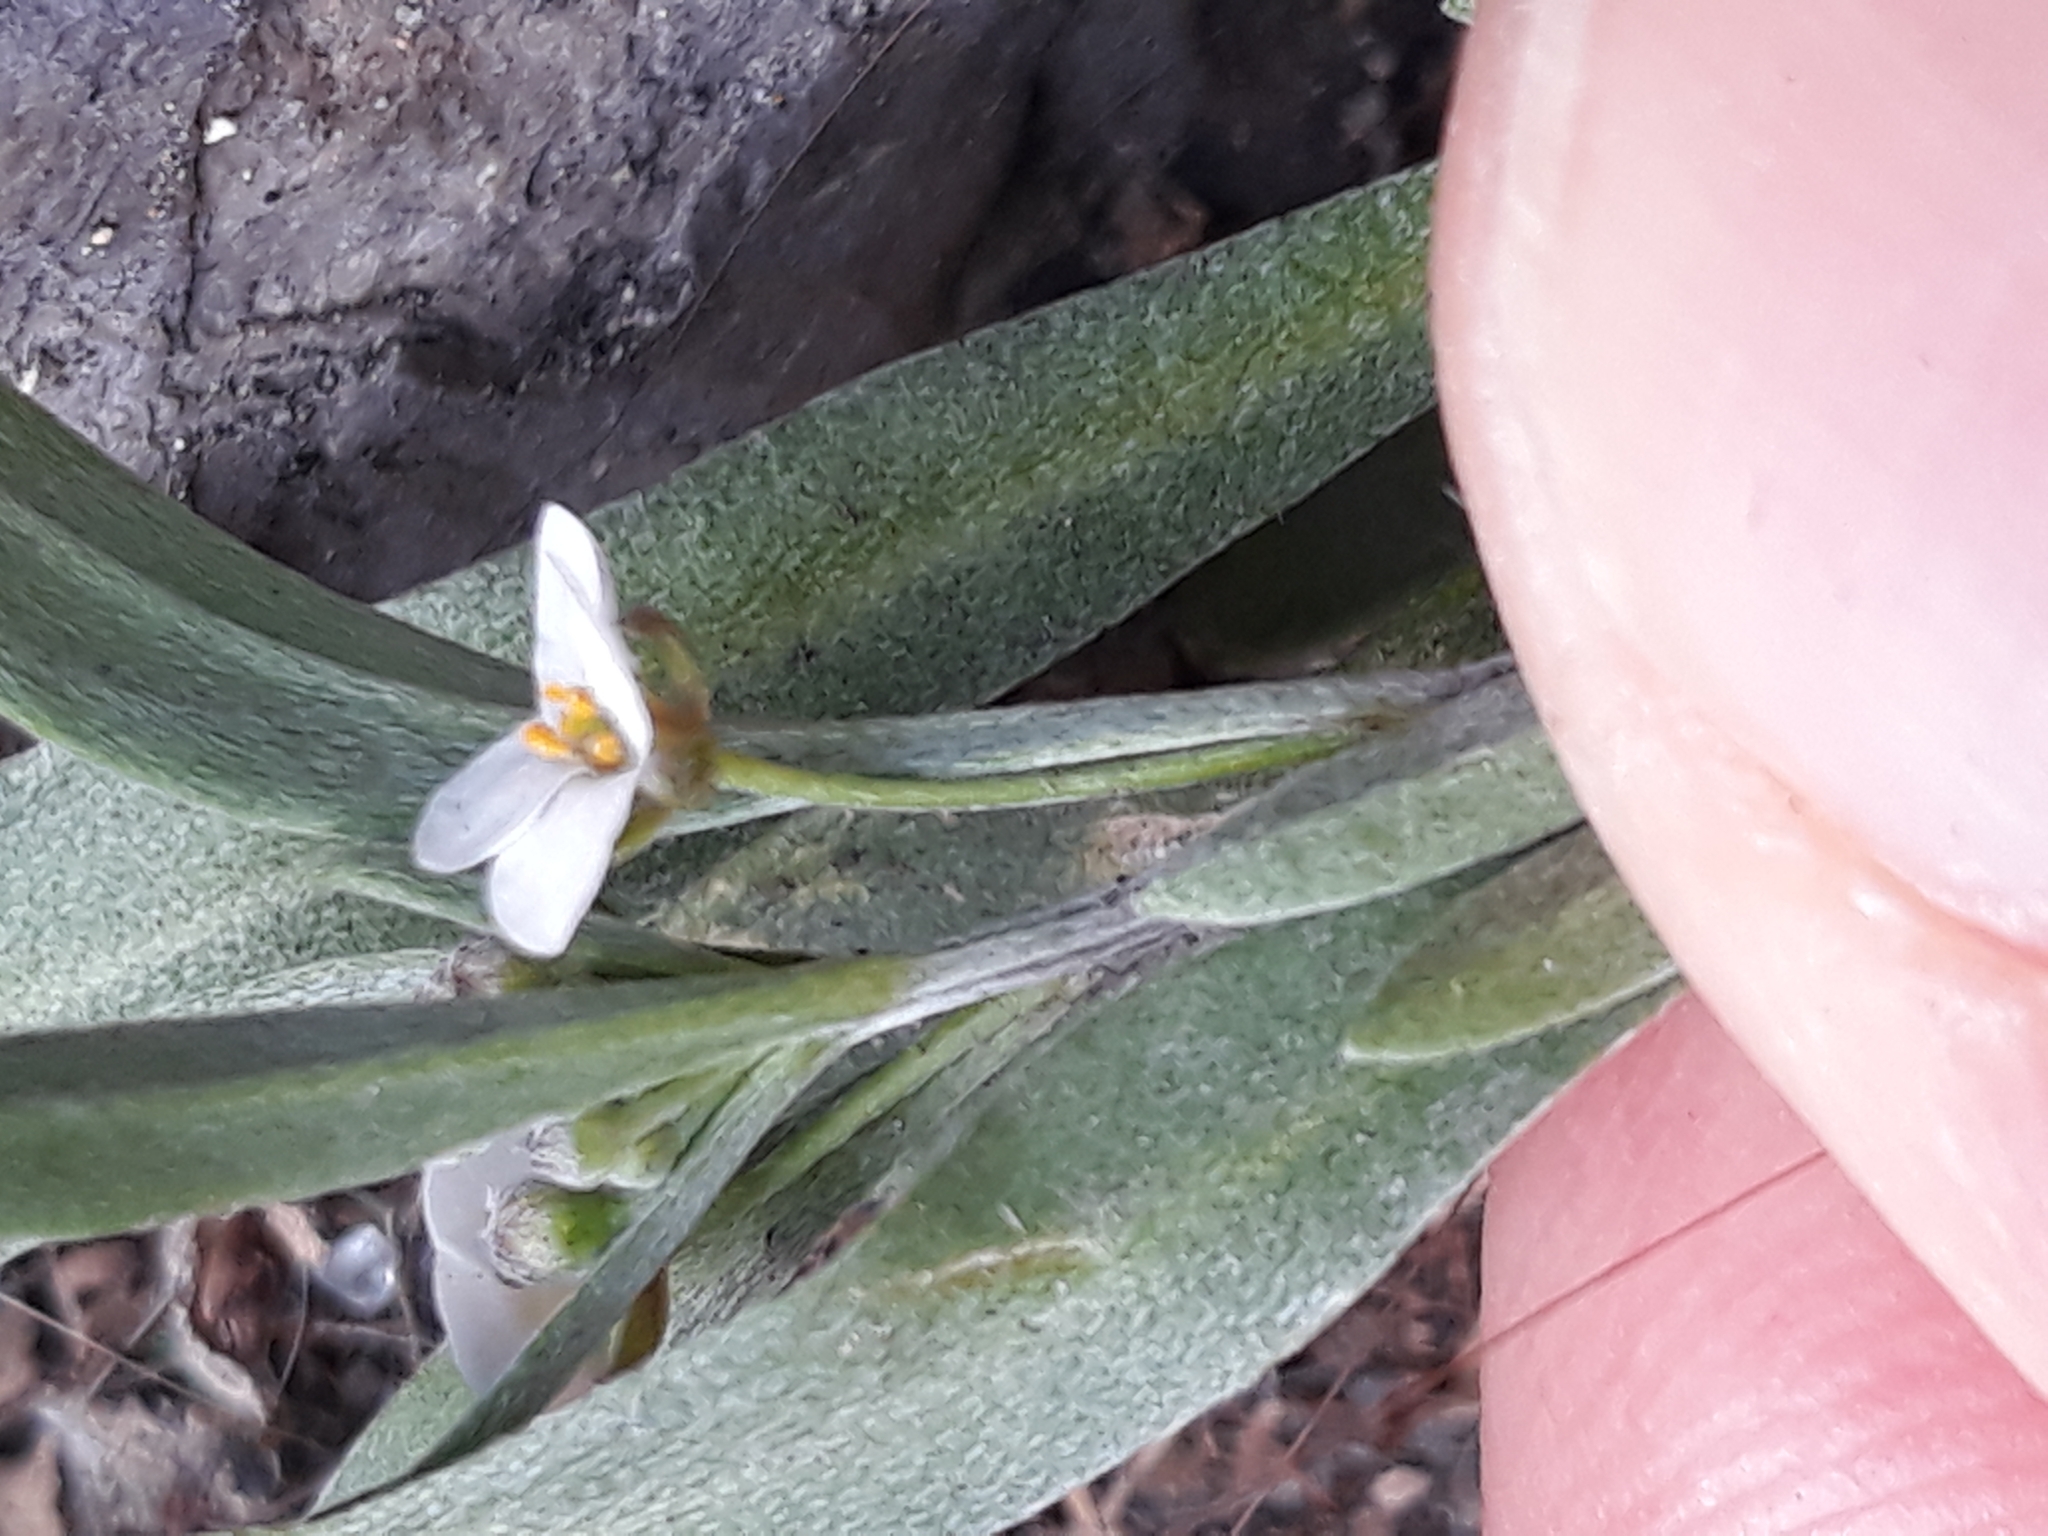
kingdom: Plantae
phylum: Tracheophyta
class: Magnoliopsida
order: Brassicales
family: Brassicaceae
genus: Lobularia
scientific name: Lobularia maritima
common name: Sweet alison
